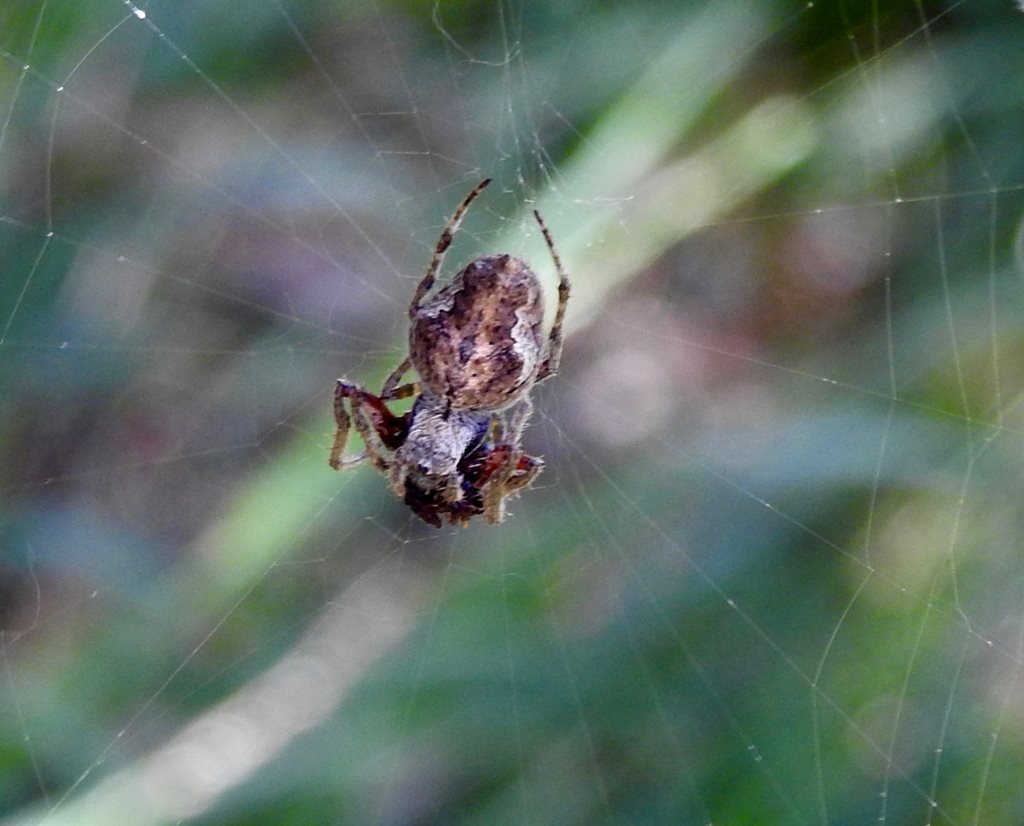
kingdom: Animalia
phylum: Arthropoda
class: Arachnida
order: Araneae
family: Araneidae
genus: Eriophora
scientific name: Eriophora pustulosa
